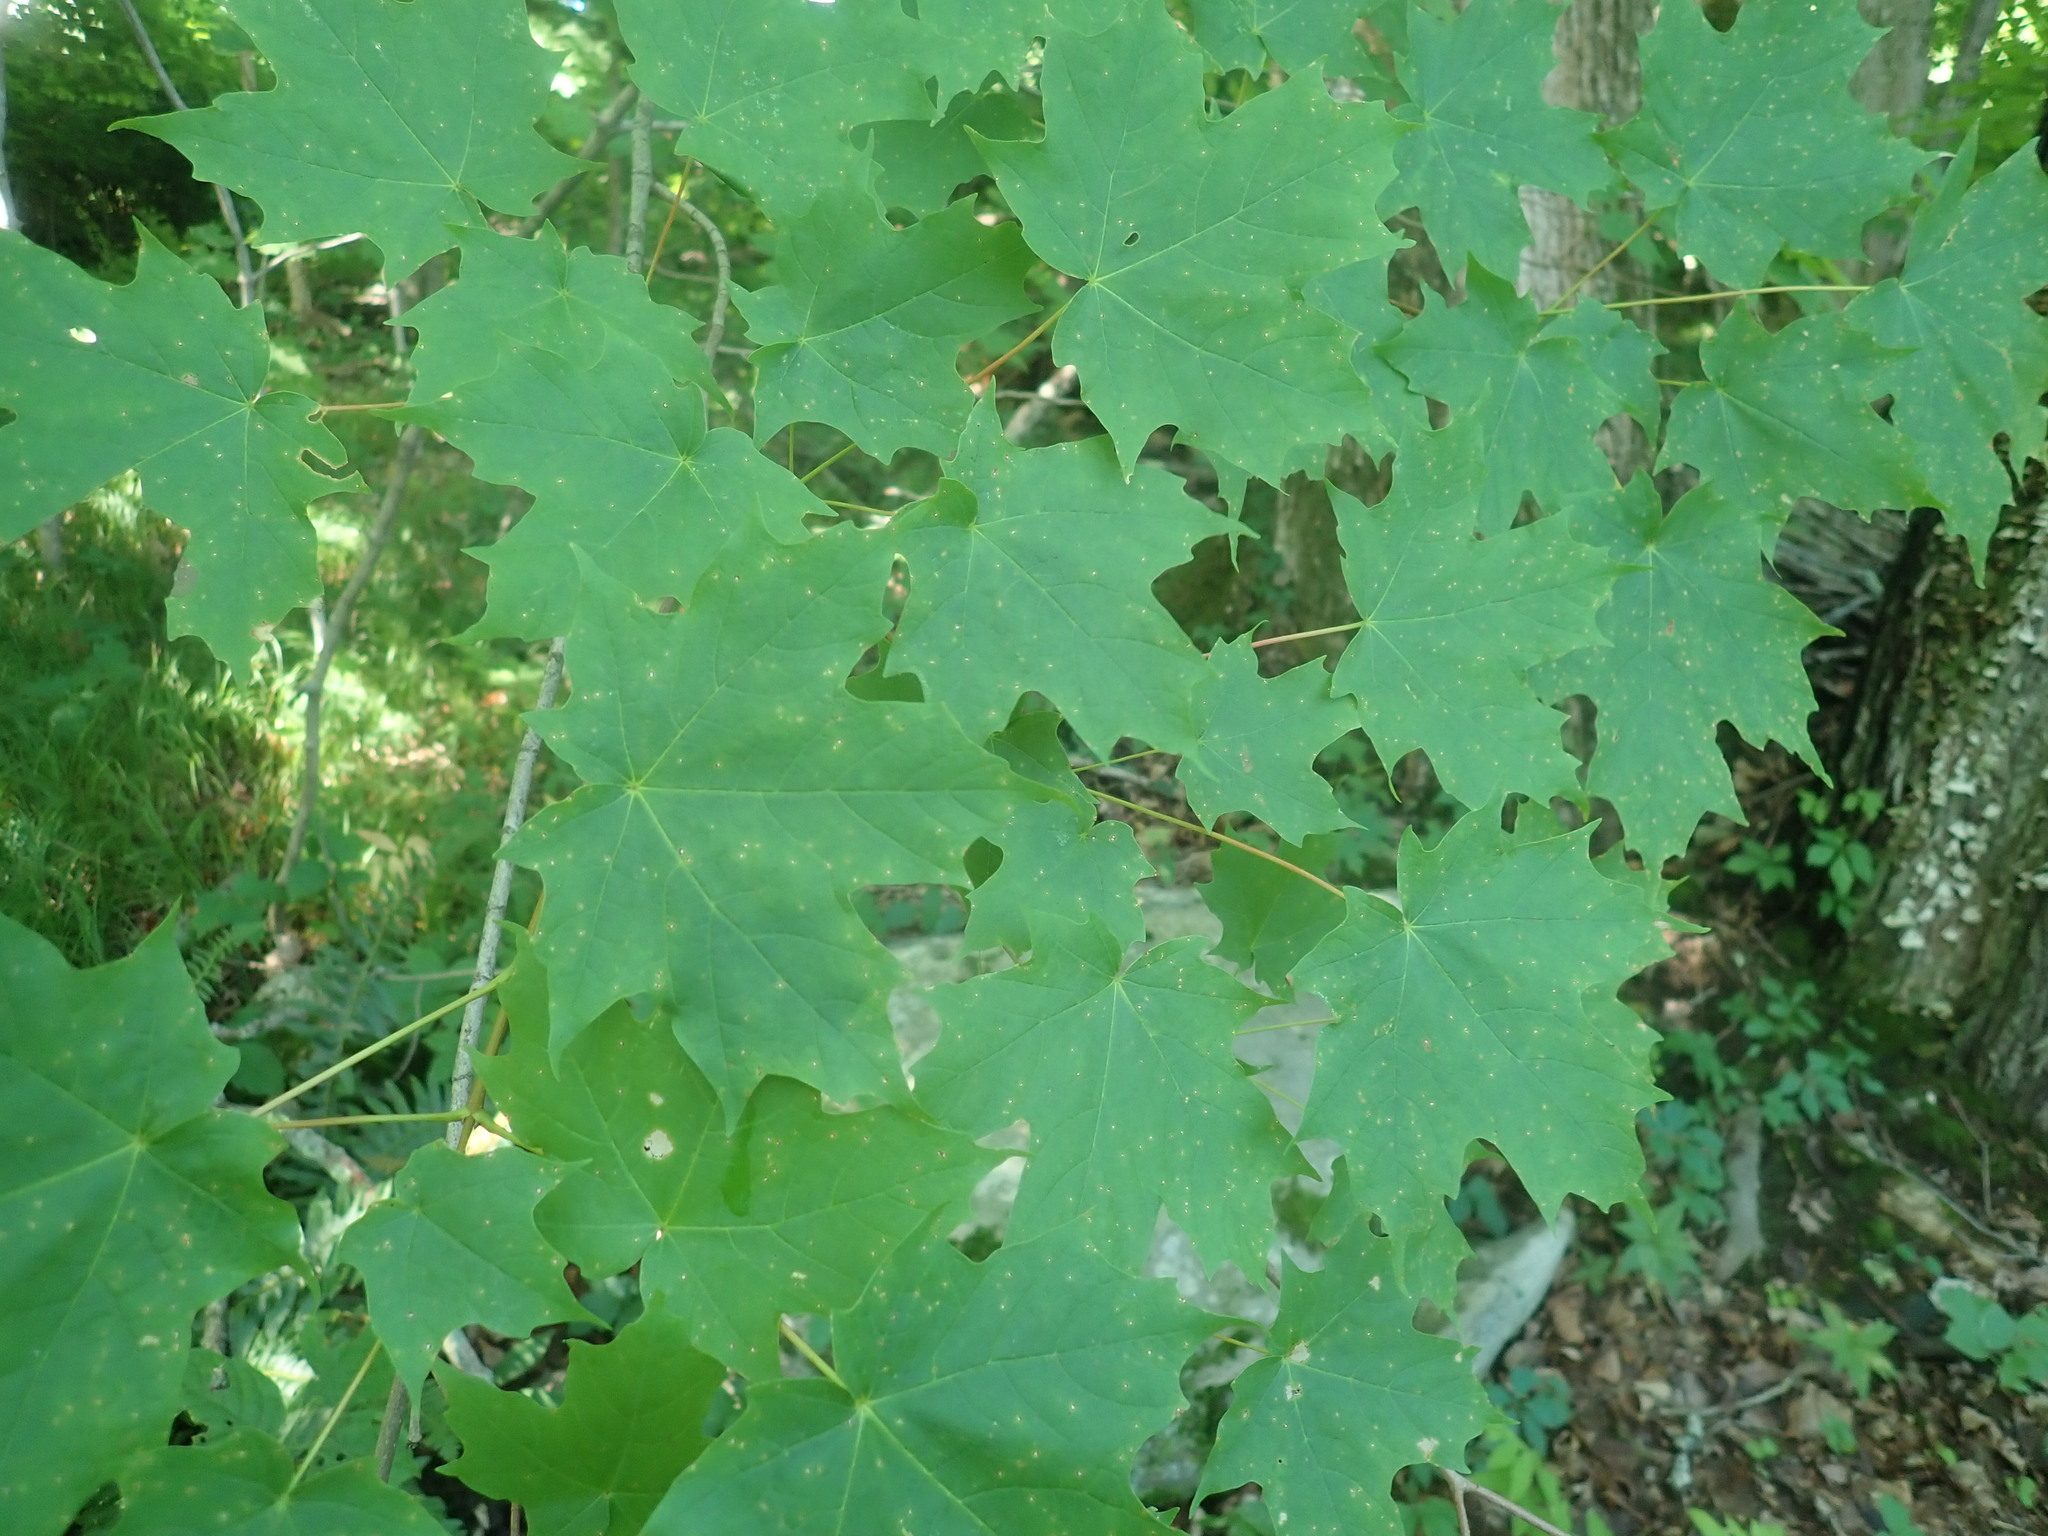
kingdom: Plantae
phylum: Tracheophyta
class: Magnoliopsida
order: Sapindales
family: Sapindaceae
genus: Acer
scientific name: Acer saccharum
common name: Sugar maple
